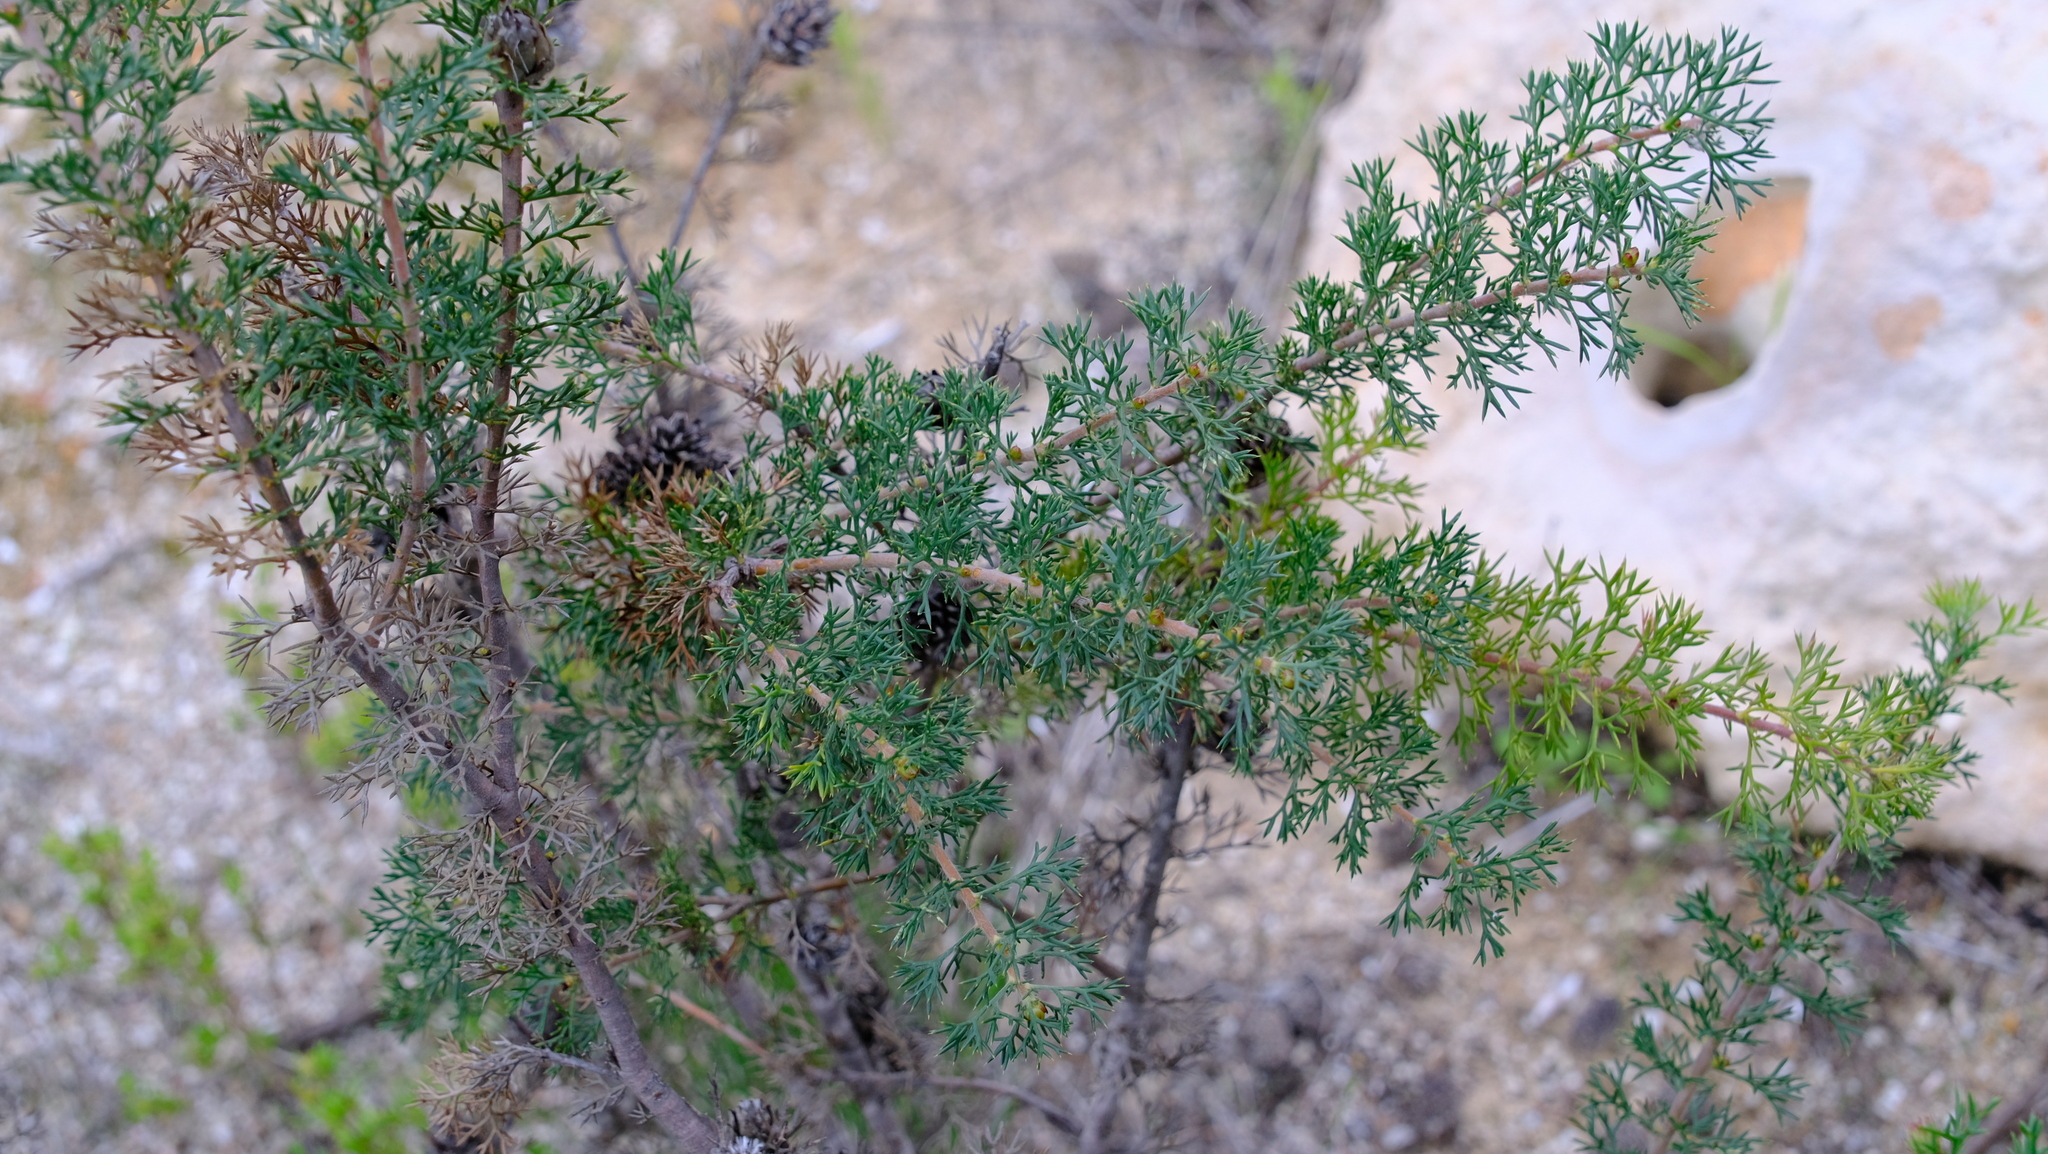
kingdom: Plantae
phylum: Tracheophyta
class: Magnoliopsida
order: Proteales
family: Proteaceae
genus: Petrophile
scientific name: Petrophile serruriae
